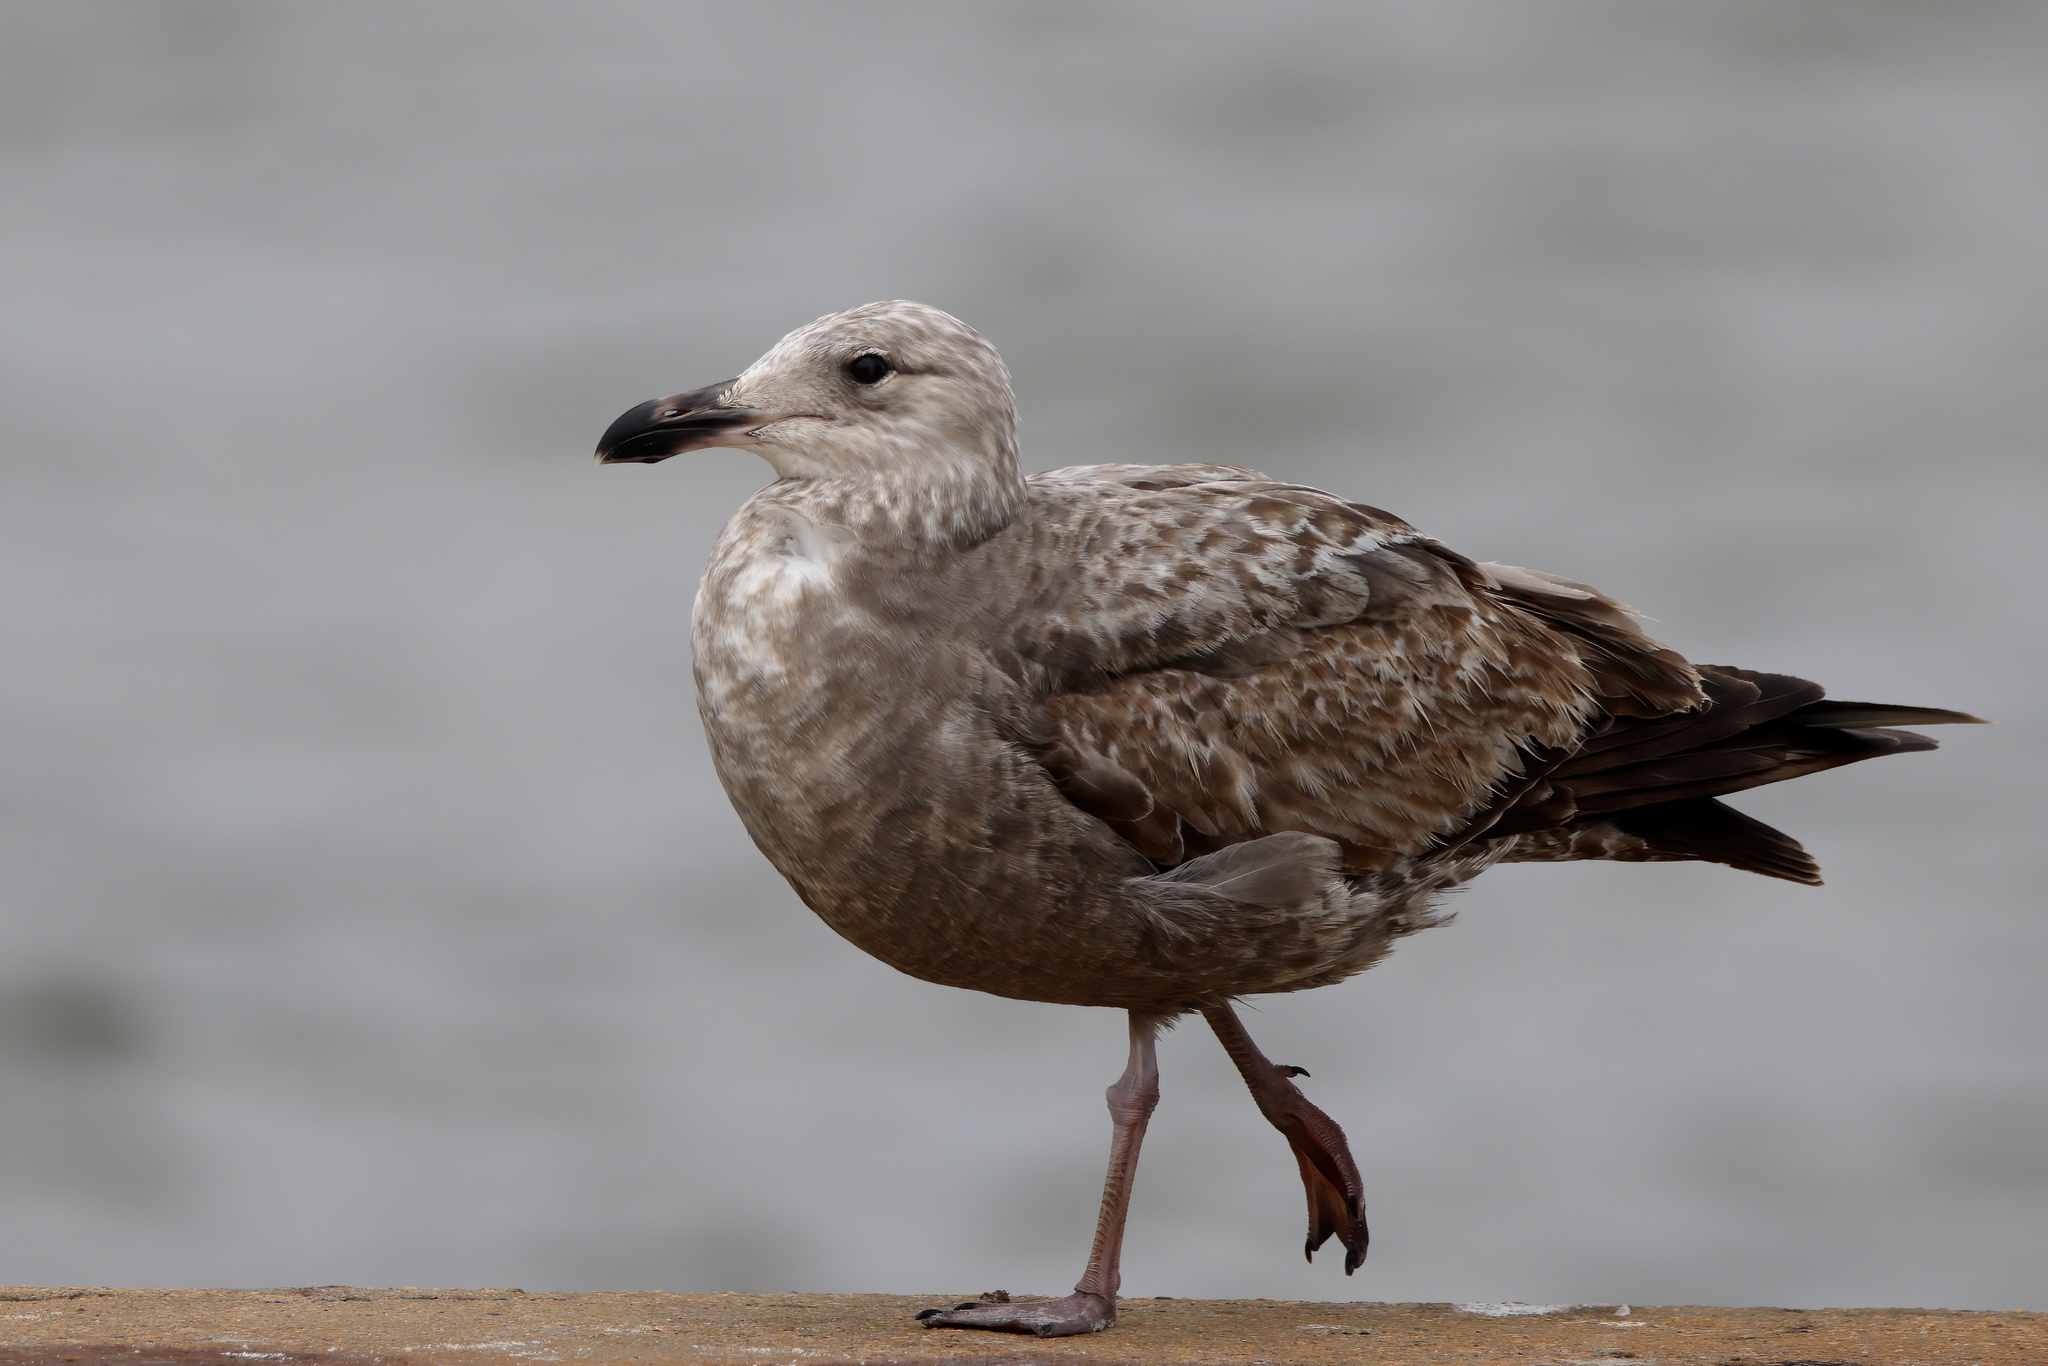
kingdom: Animalia
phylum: Chordata
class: Aves
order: Charadriiformes
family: Laridae
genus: Larus
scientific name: Larus argentatus
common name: Herring gull
